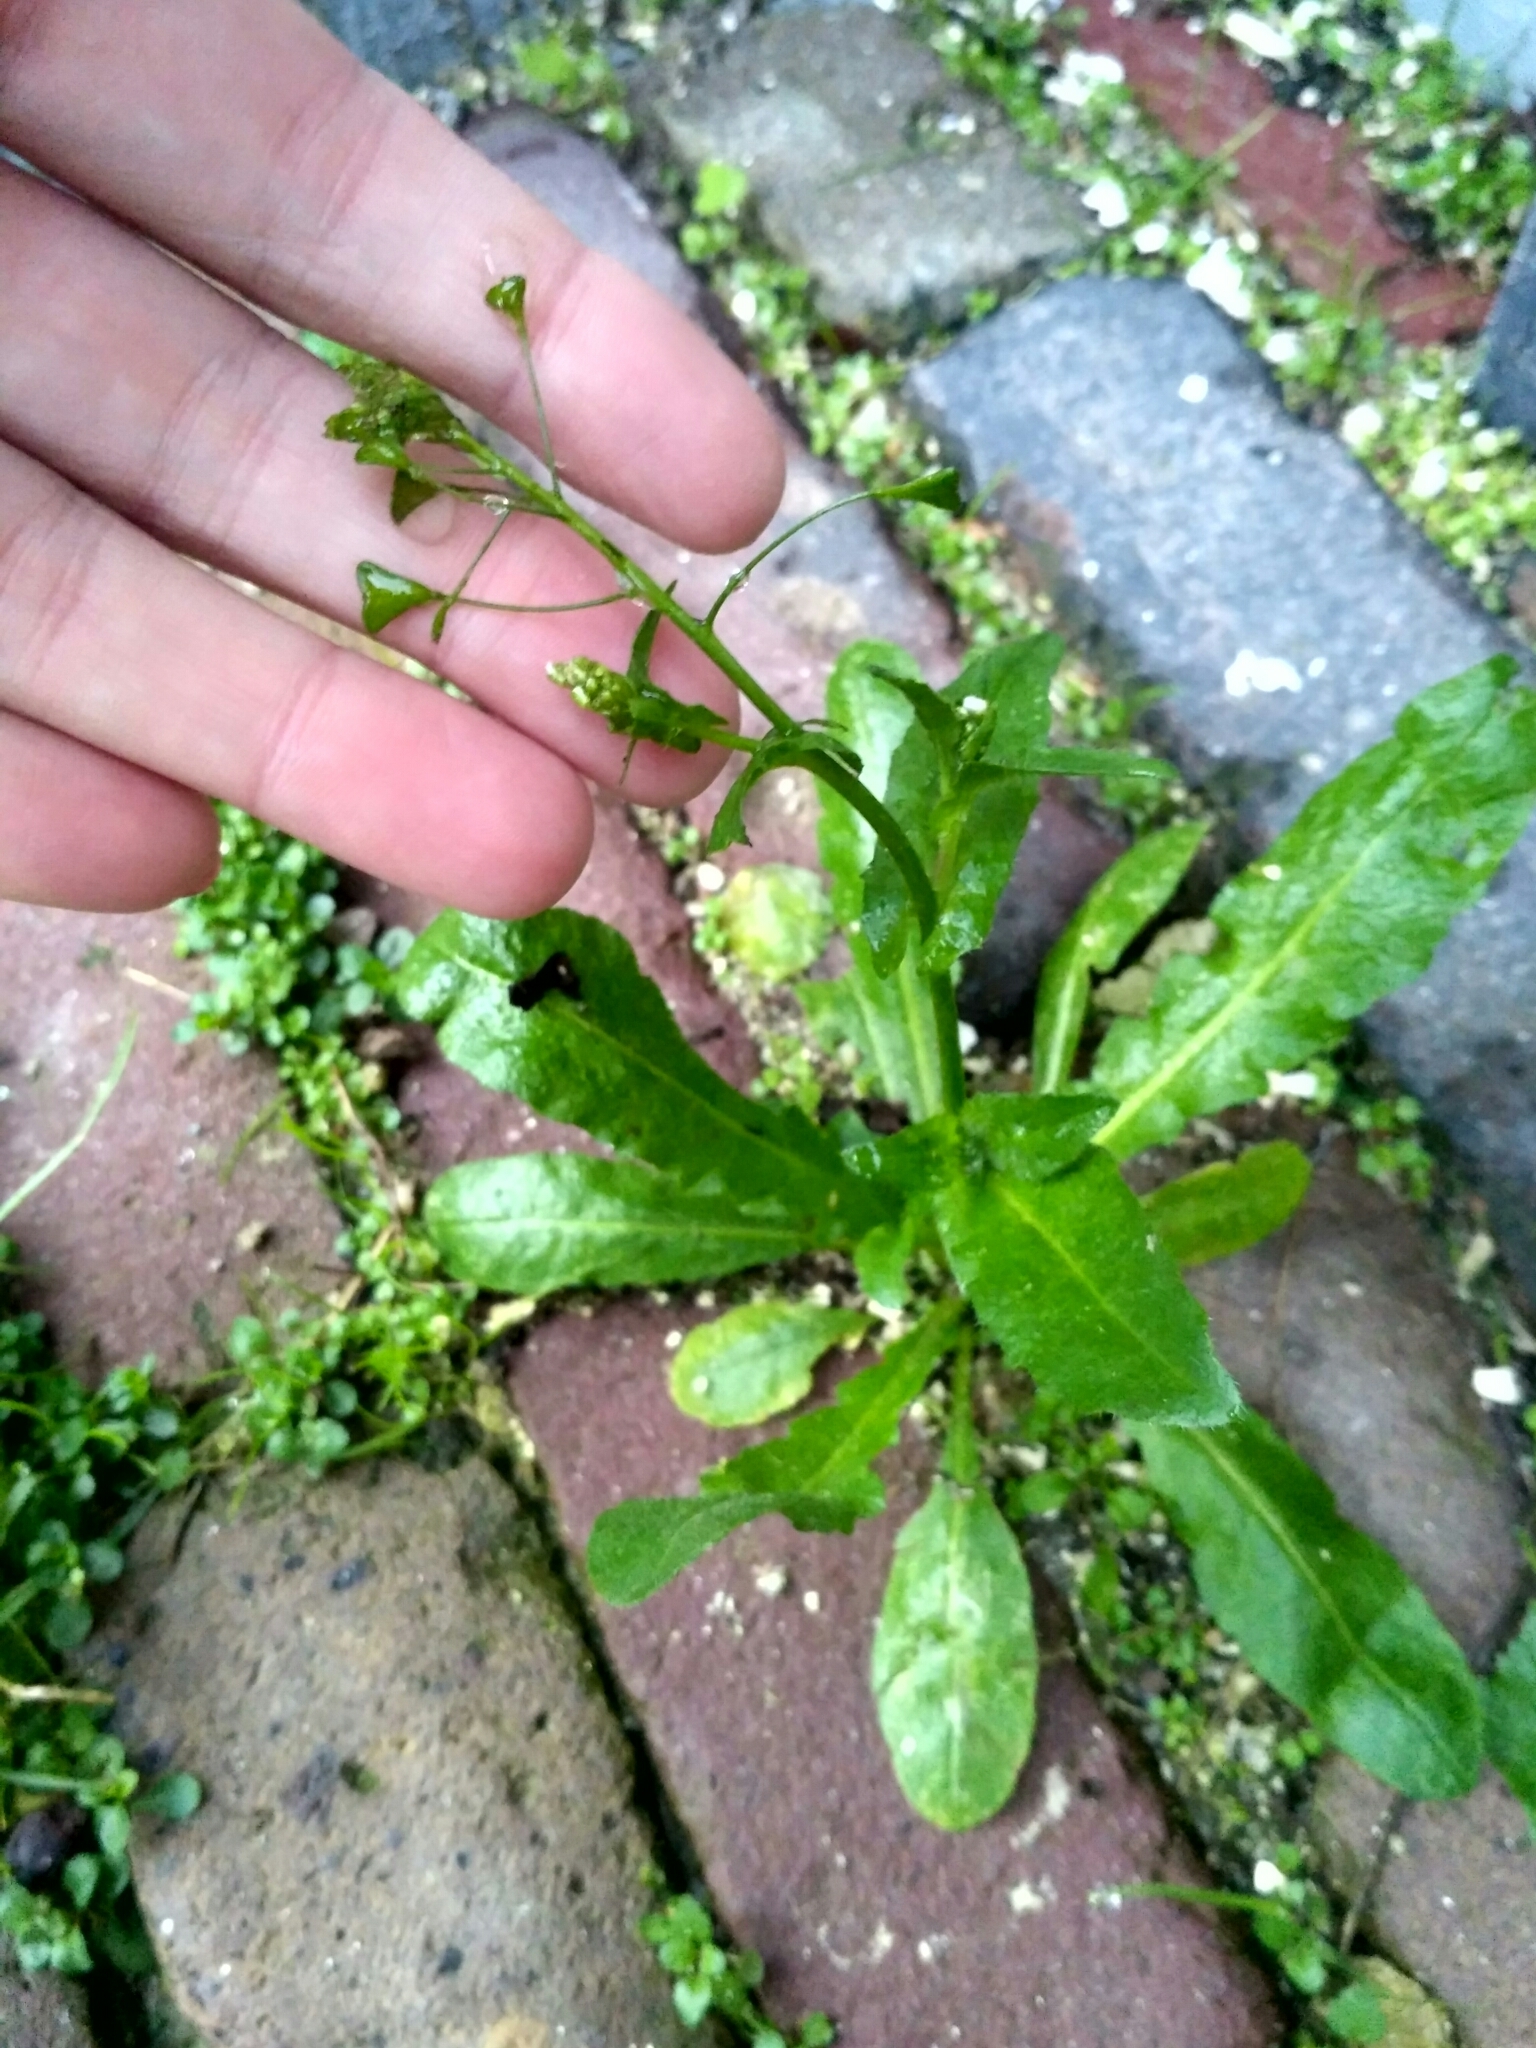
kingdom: Plantae
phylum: Tracheophyta
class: Magnoliopsida
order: Brassicales
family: Brassicaceae
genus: Capsella
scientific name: Capsella bursa-pastoris
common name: Shepherd's purse
